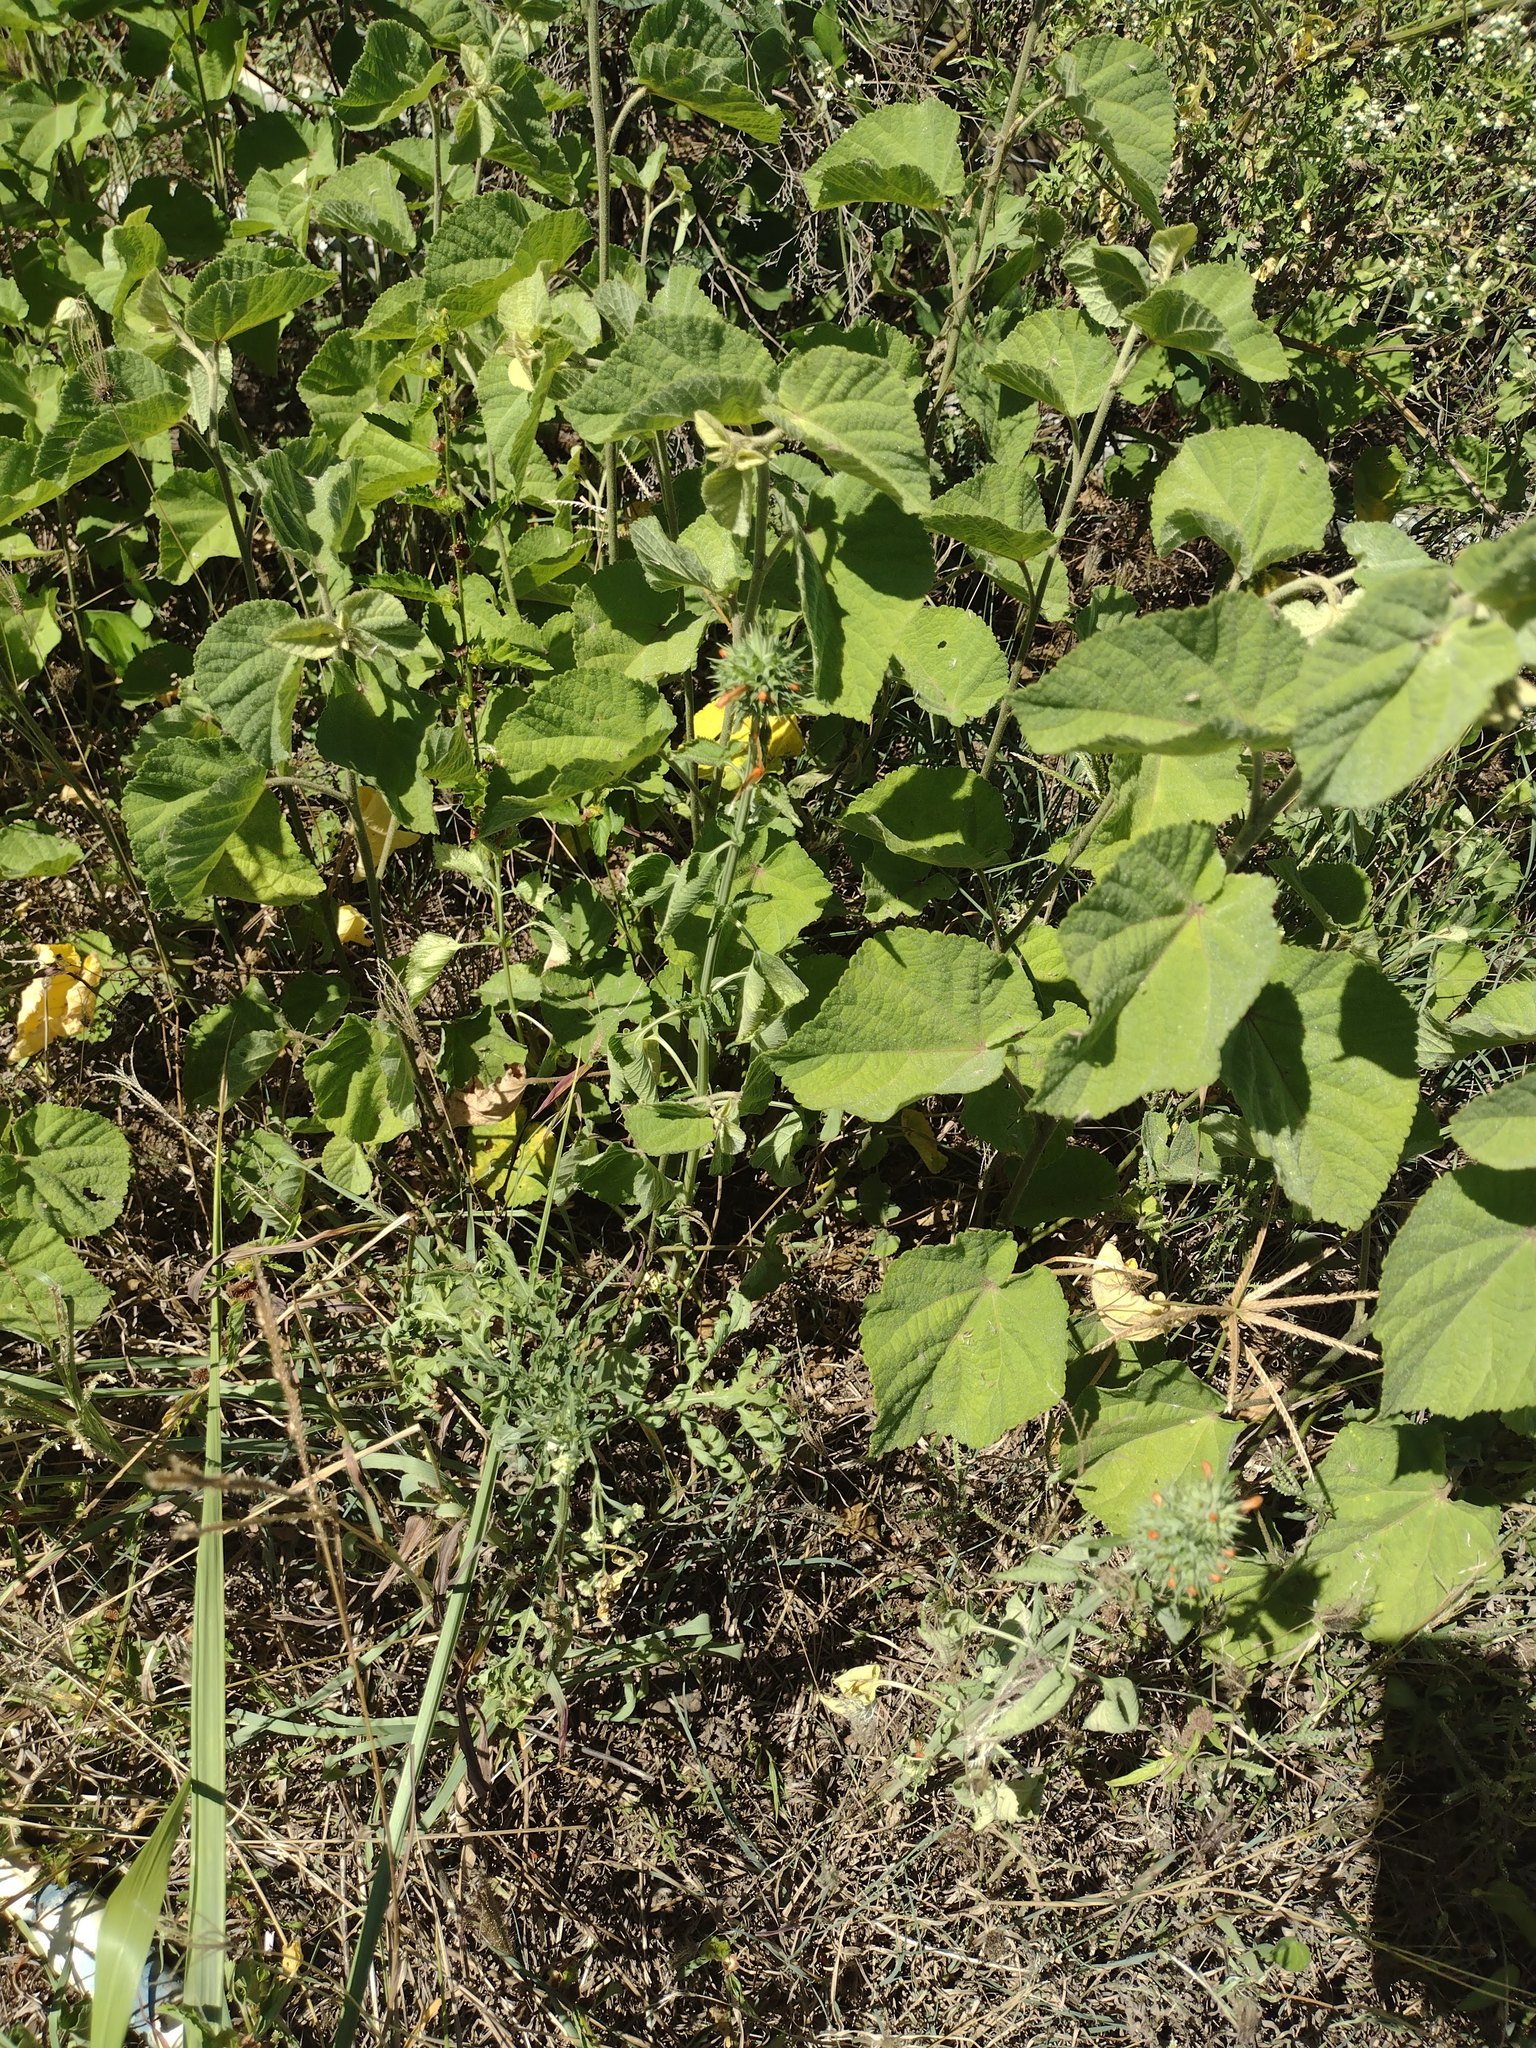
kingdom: Plantae
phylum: Tracheophyta
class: Magnoliopsida
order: Lamiales
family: Lamiaceae
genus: Leonotis
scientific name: Leonotis nepetifolia
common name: Christmas candlestick
